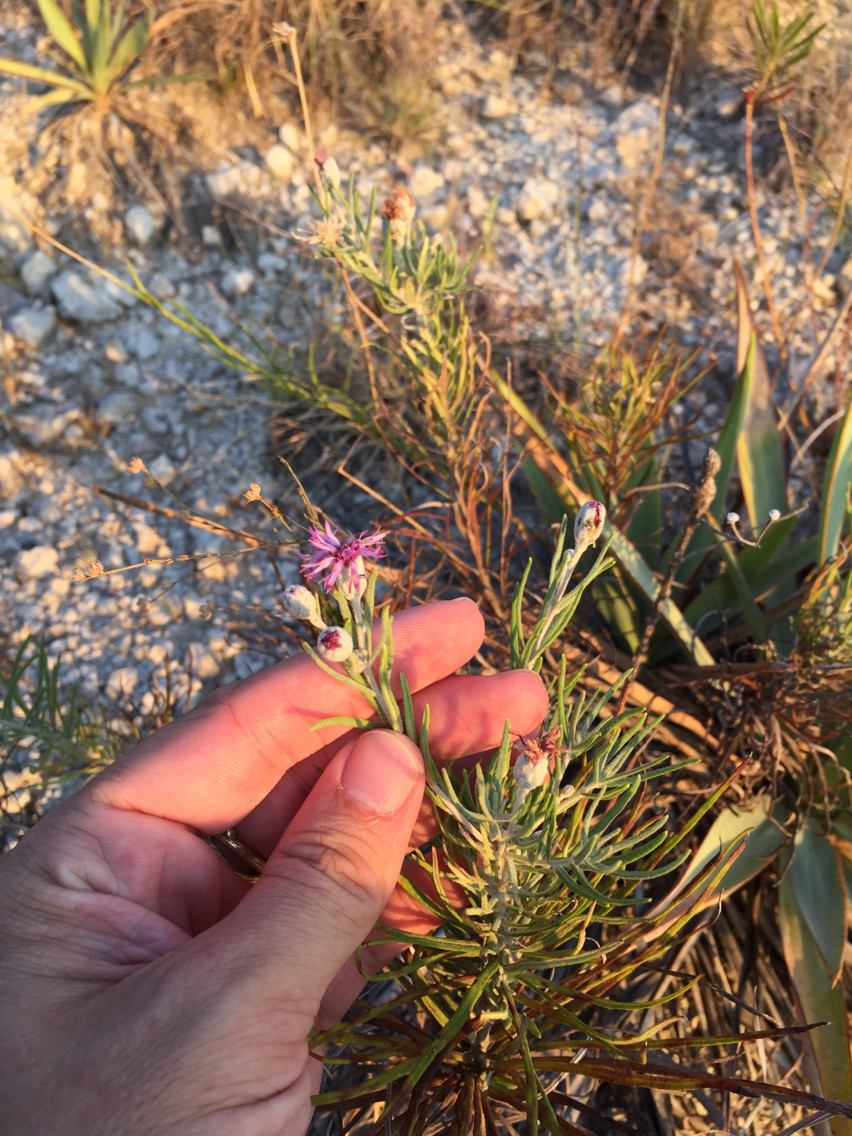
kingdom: Plantae
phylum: Tracheophyta
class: Magnoliopsida
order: Asterales
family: Asteraceae
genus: Vernonia
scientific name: Vernonia lindheimeri
